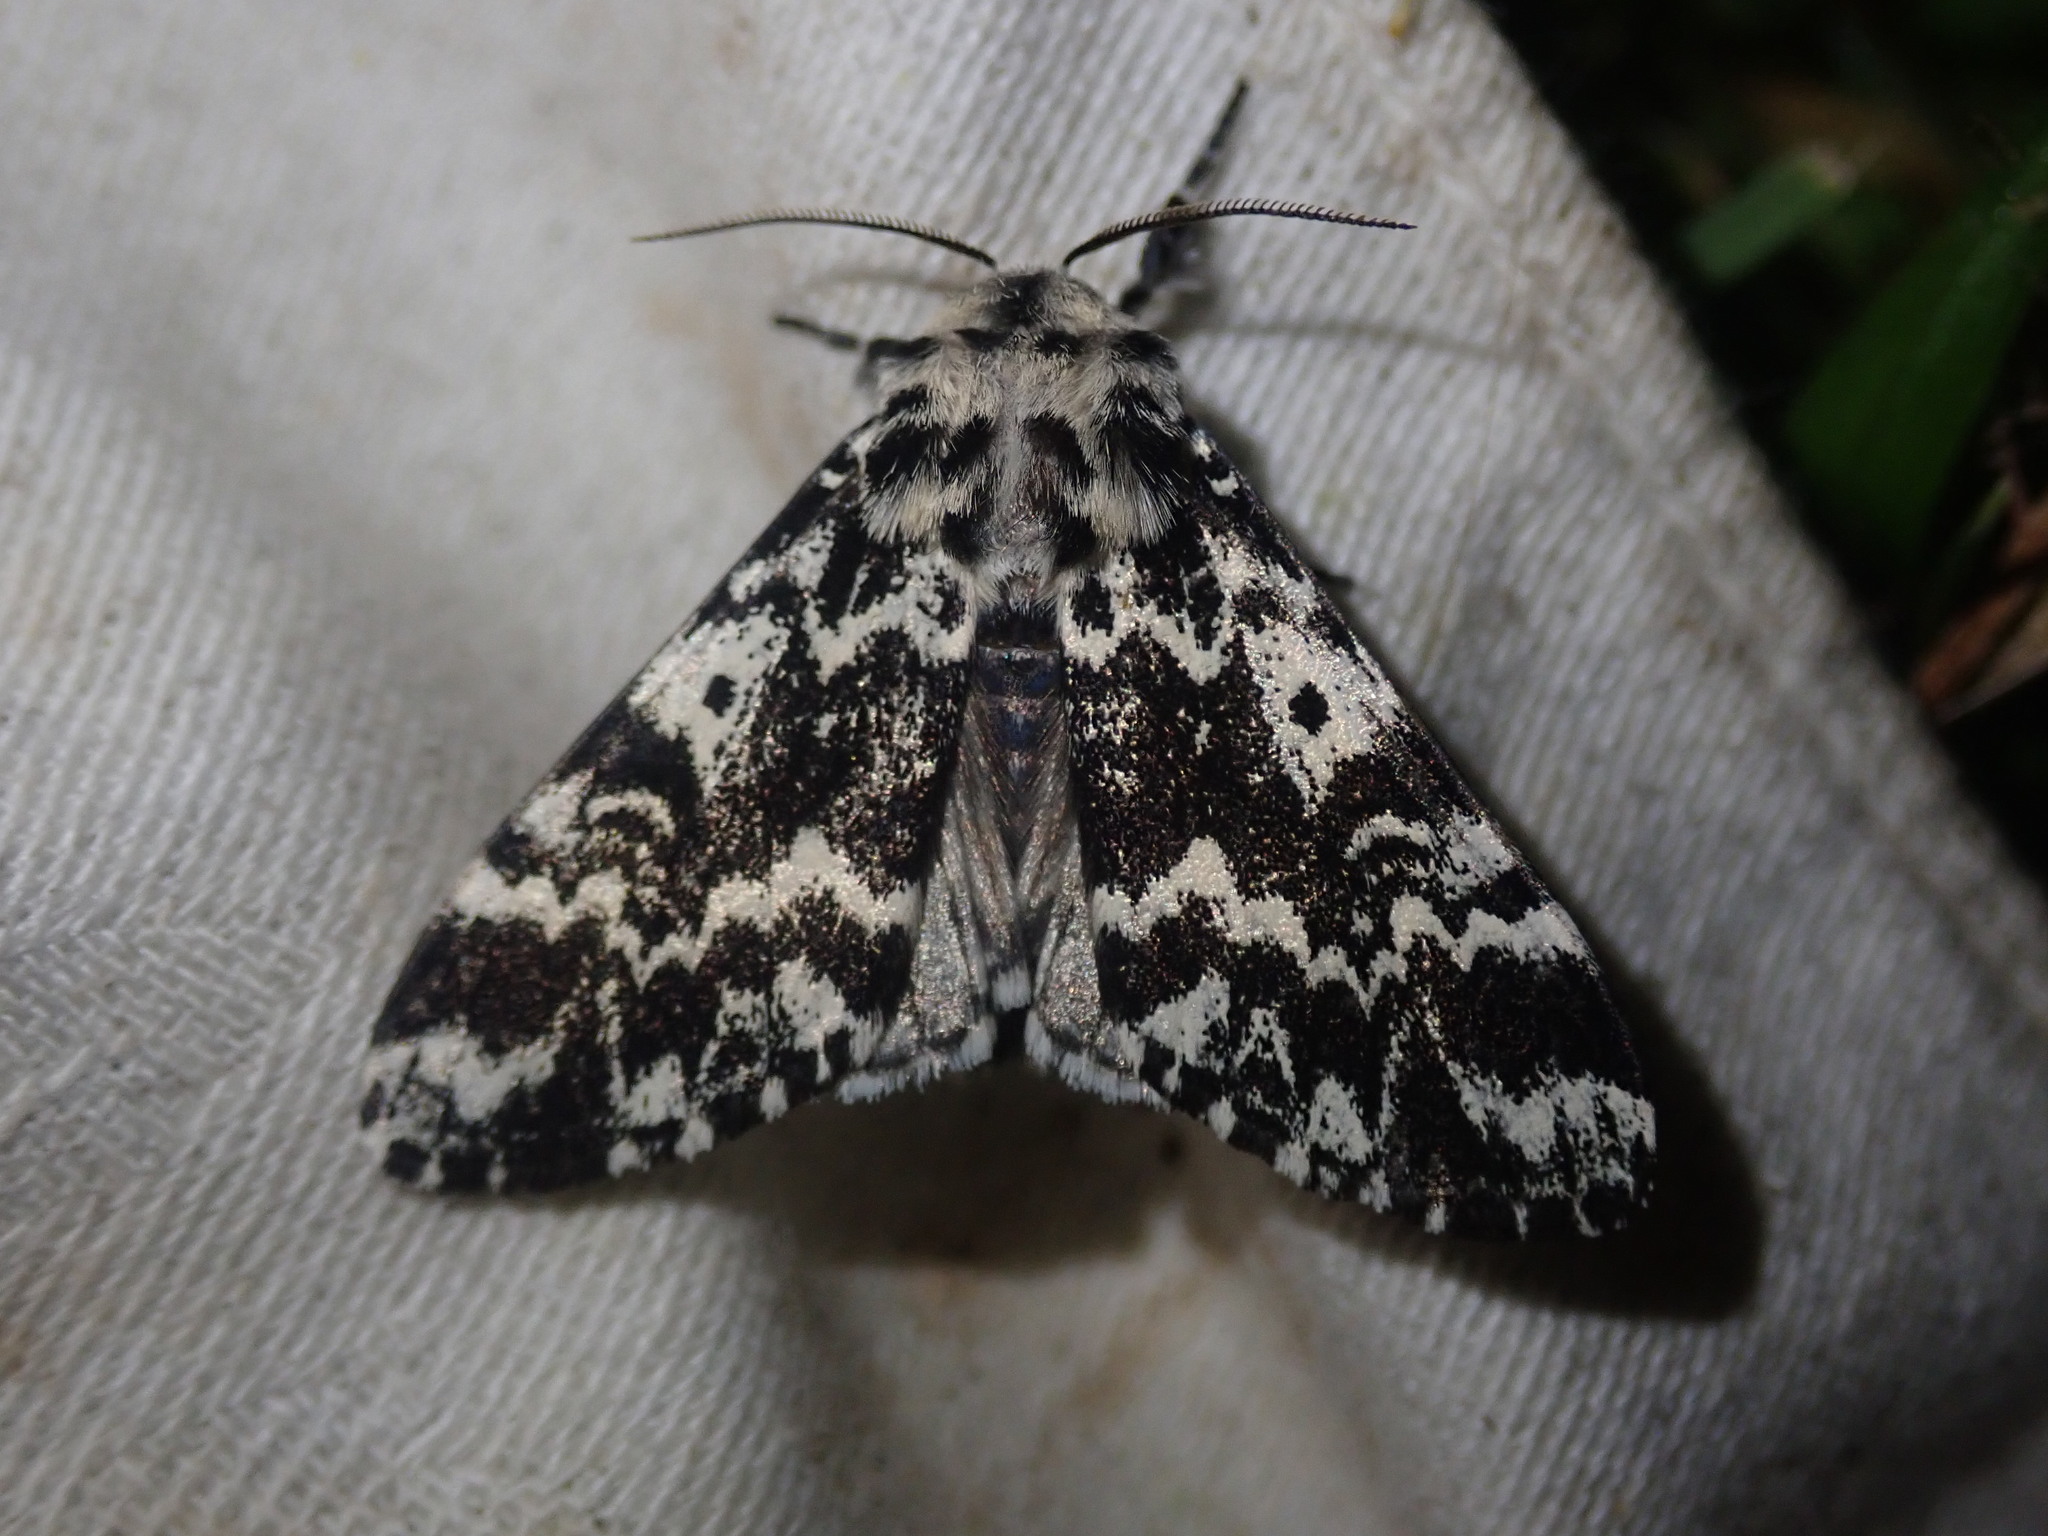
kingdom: Animalia
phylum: Arthropoda
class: Insecta
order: Lepidoptera
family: Noctuidae
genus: Panthea
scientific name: Panthea coenobita
